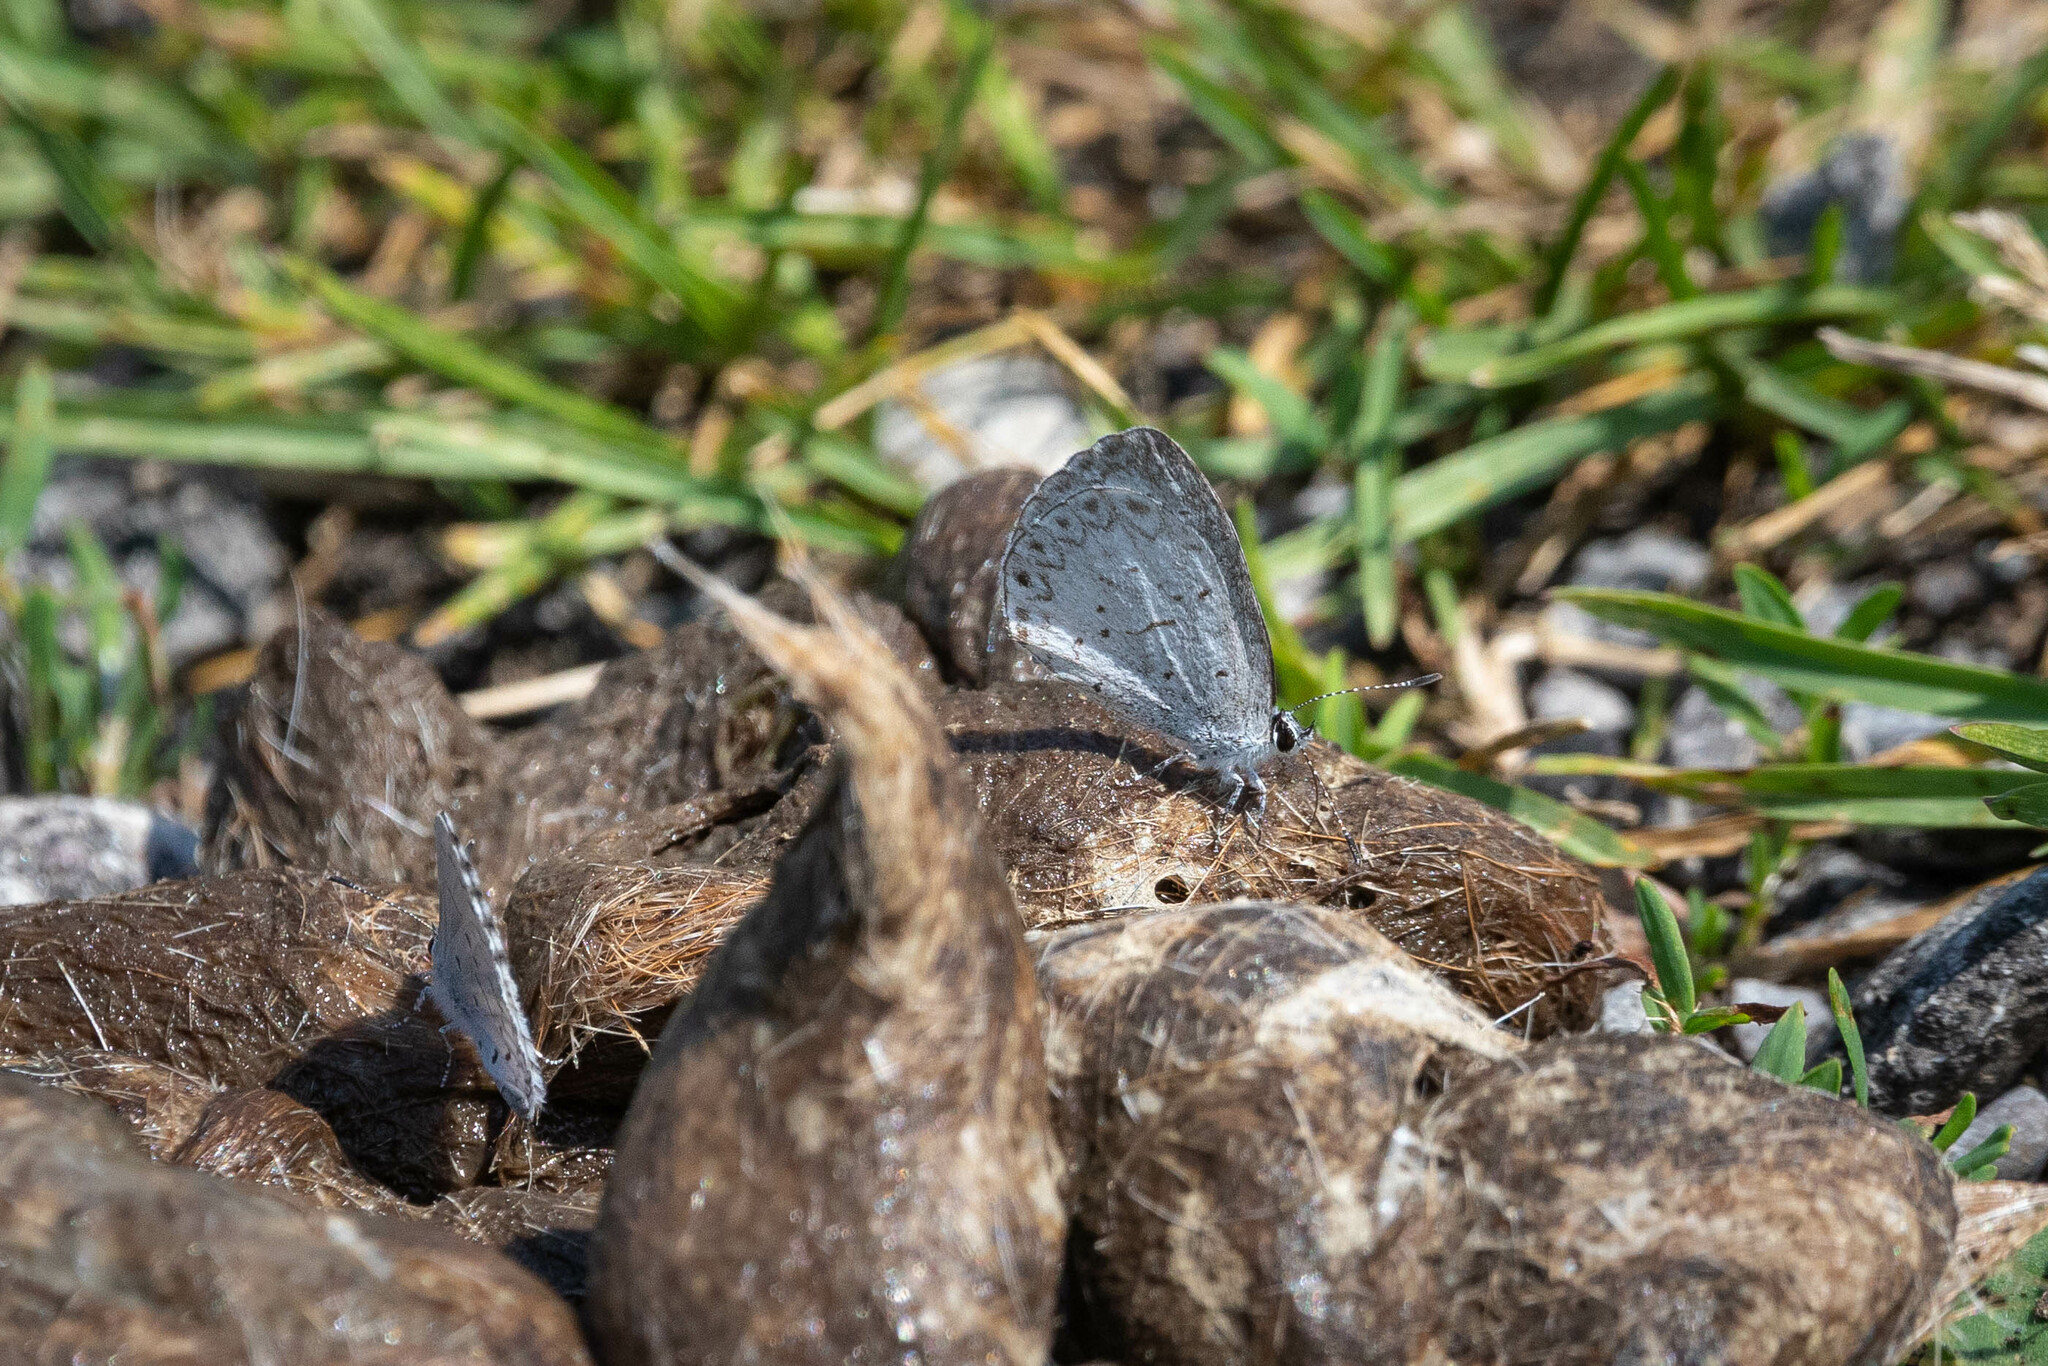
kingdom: Animalia
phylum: Arthropoda
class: Insecta
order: Lepidoptera
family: Lycaenidae
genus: Celastrina
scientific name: Celastrina lucia
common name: Lucia azure
